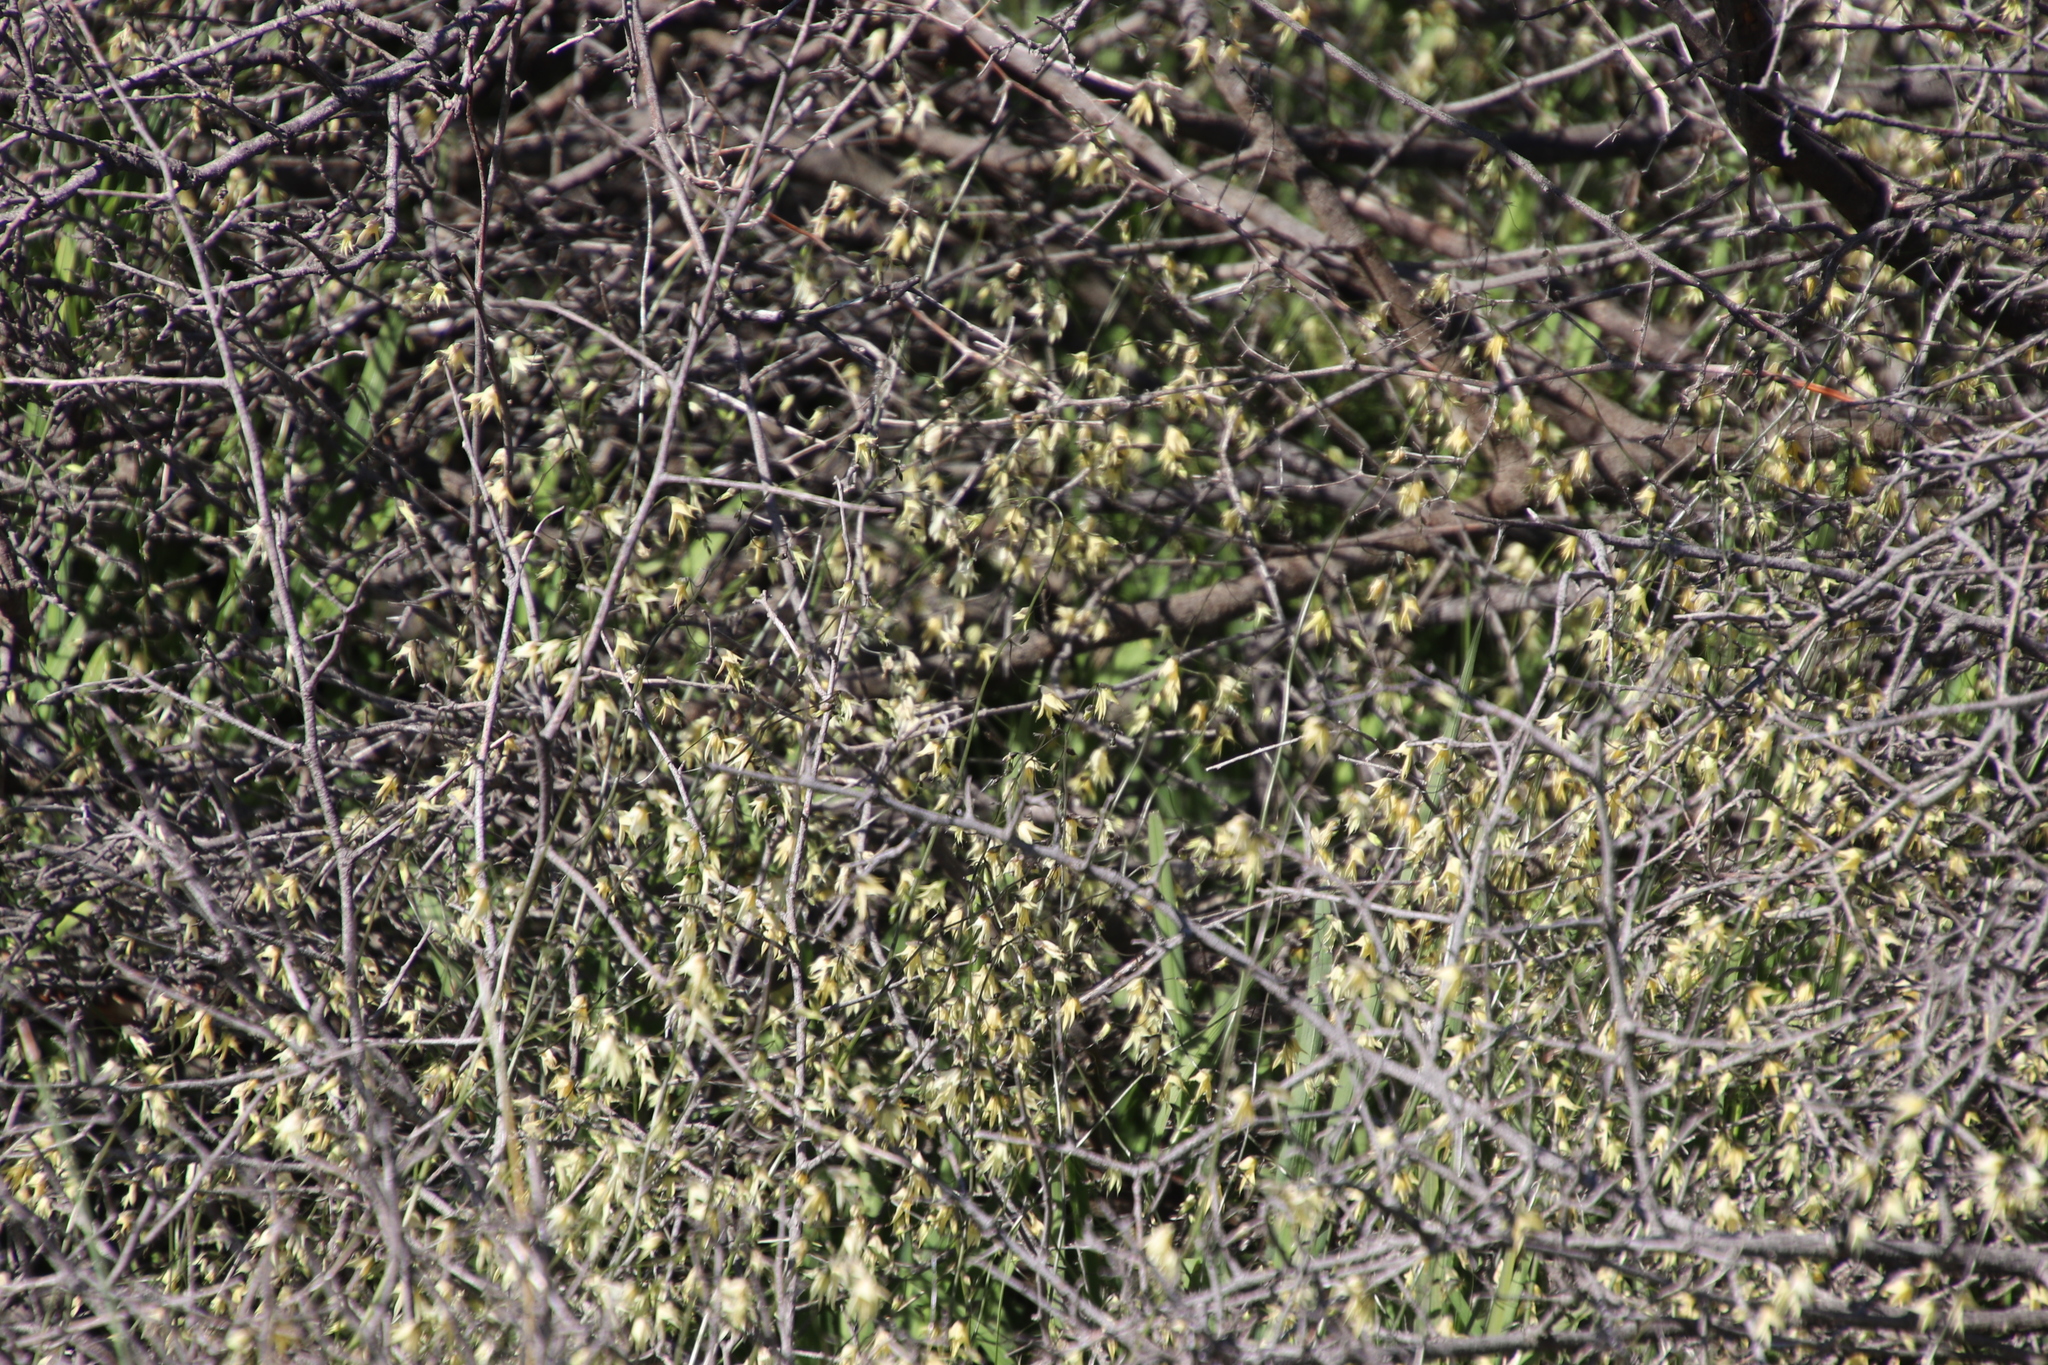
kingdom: Plantae
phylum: Tracheophyta
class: Liliopsida
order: Asparagales
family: Iridaceae
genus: Melasphaerula
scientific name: Melasphaerula graminea
